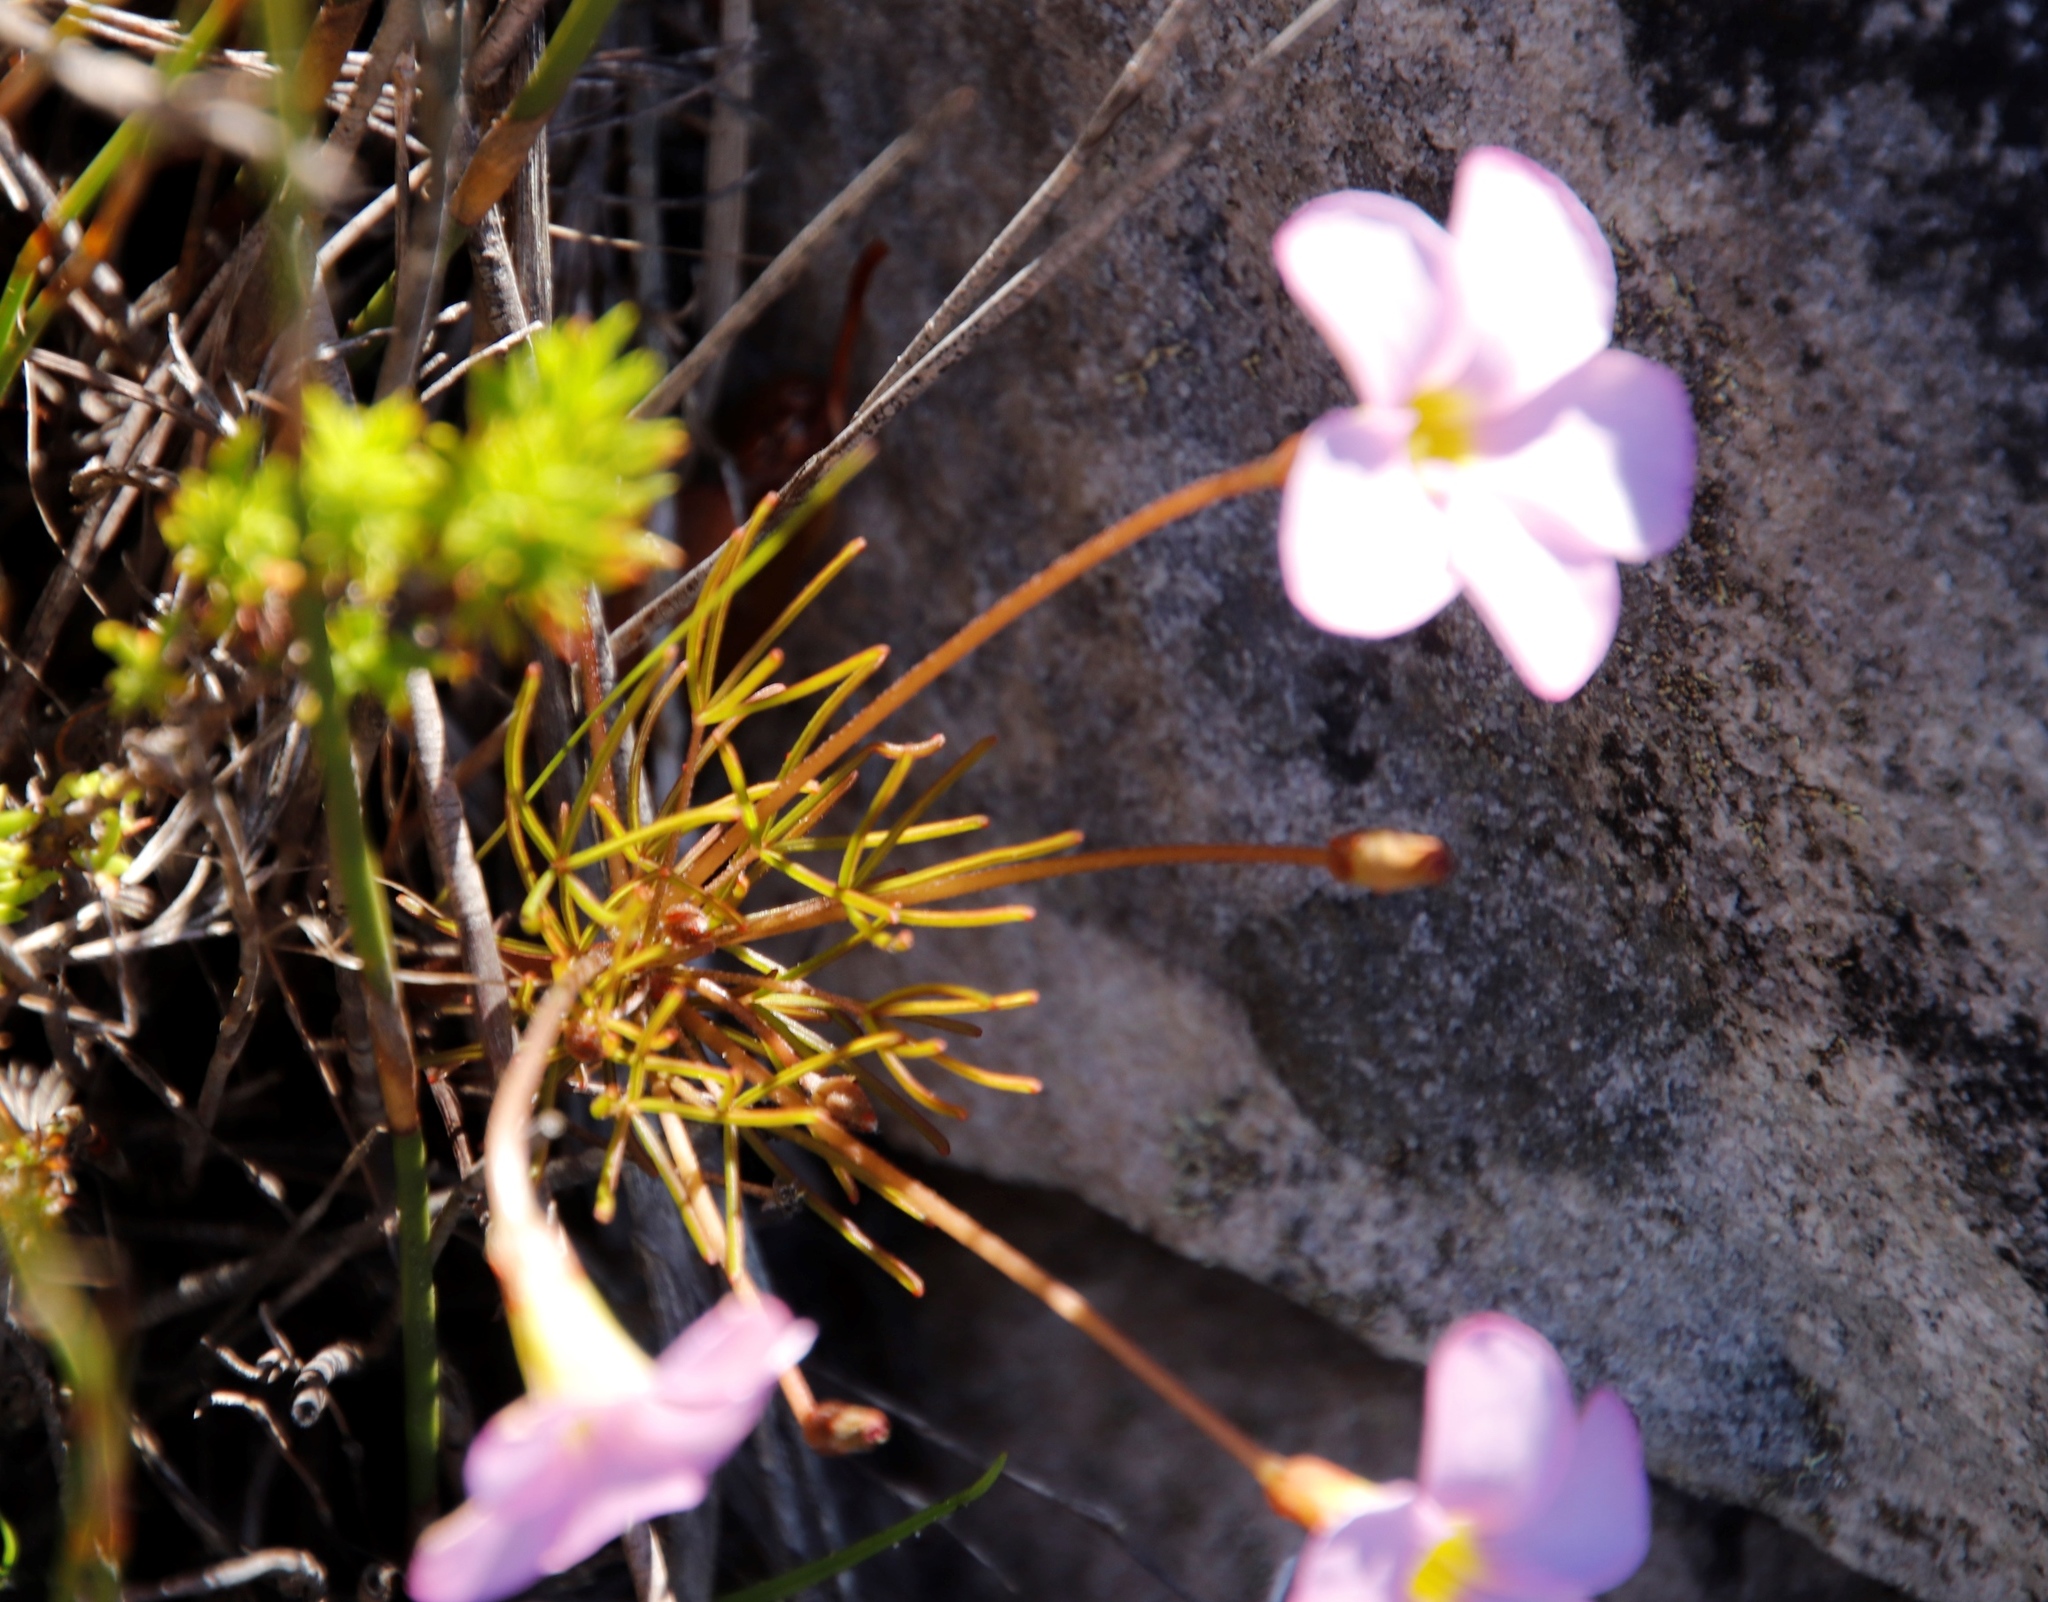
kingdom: Plantae
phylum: Tracheophyta
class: Magnoliopsida
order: Oxalidales
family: Oxalidaceae
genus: Oxalis
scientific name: Oxalis polyphylla
